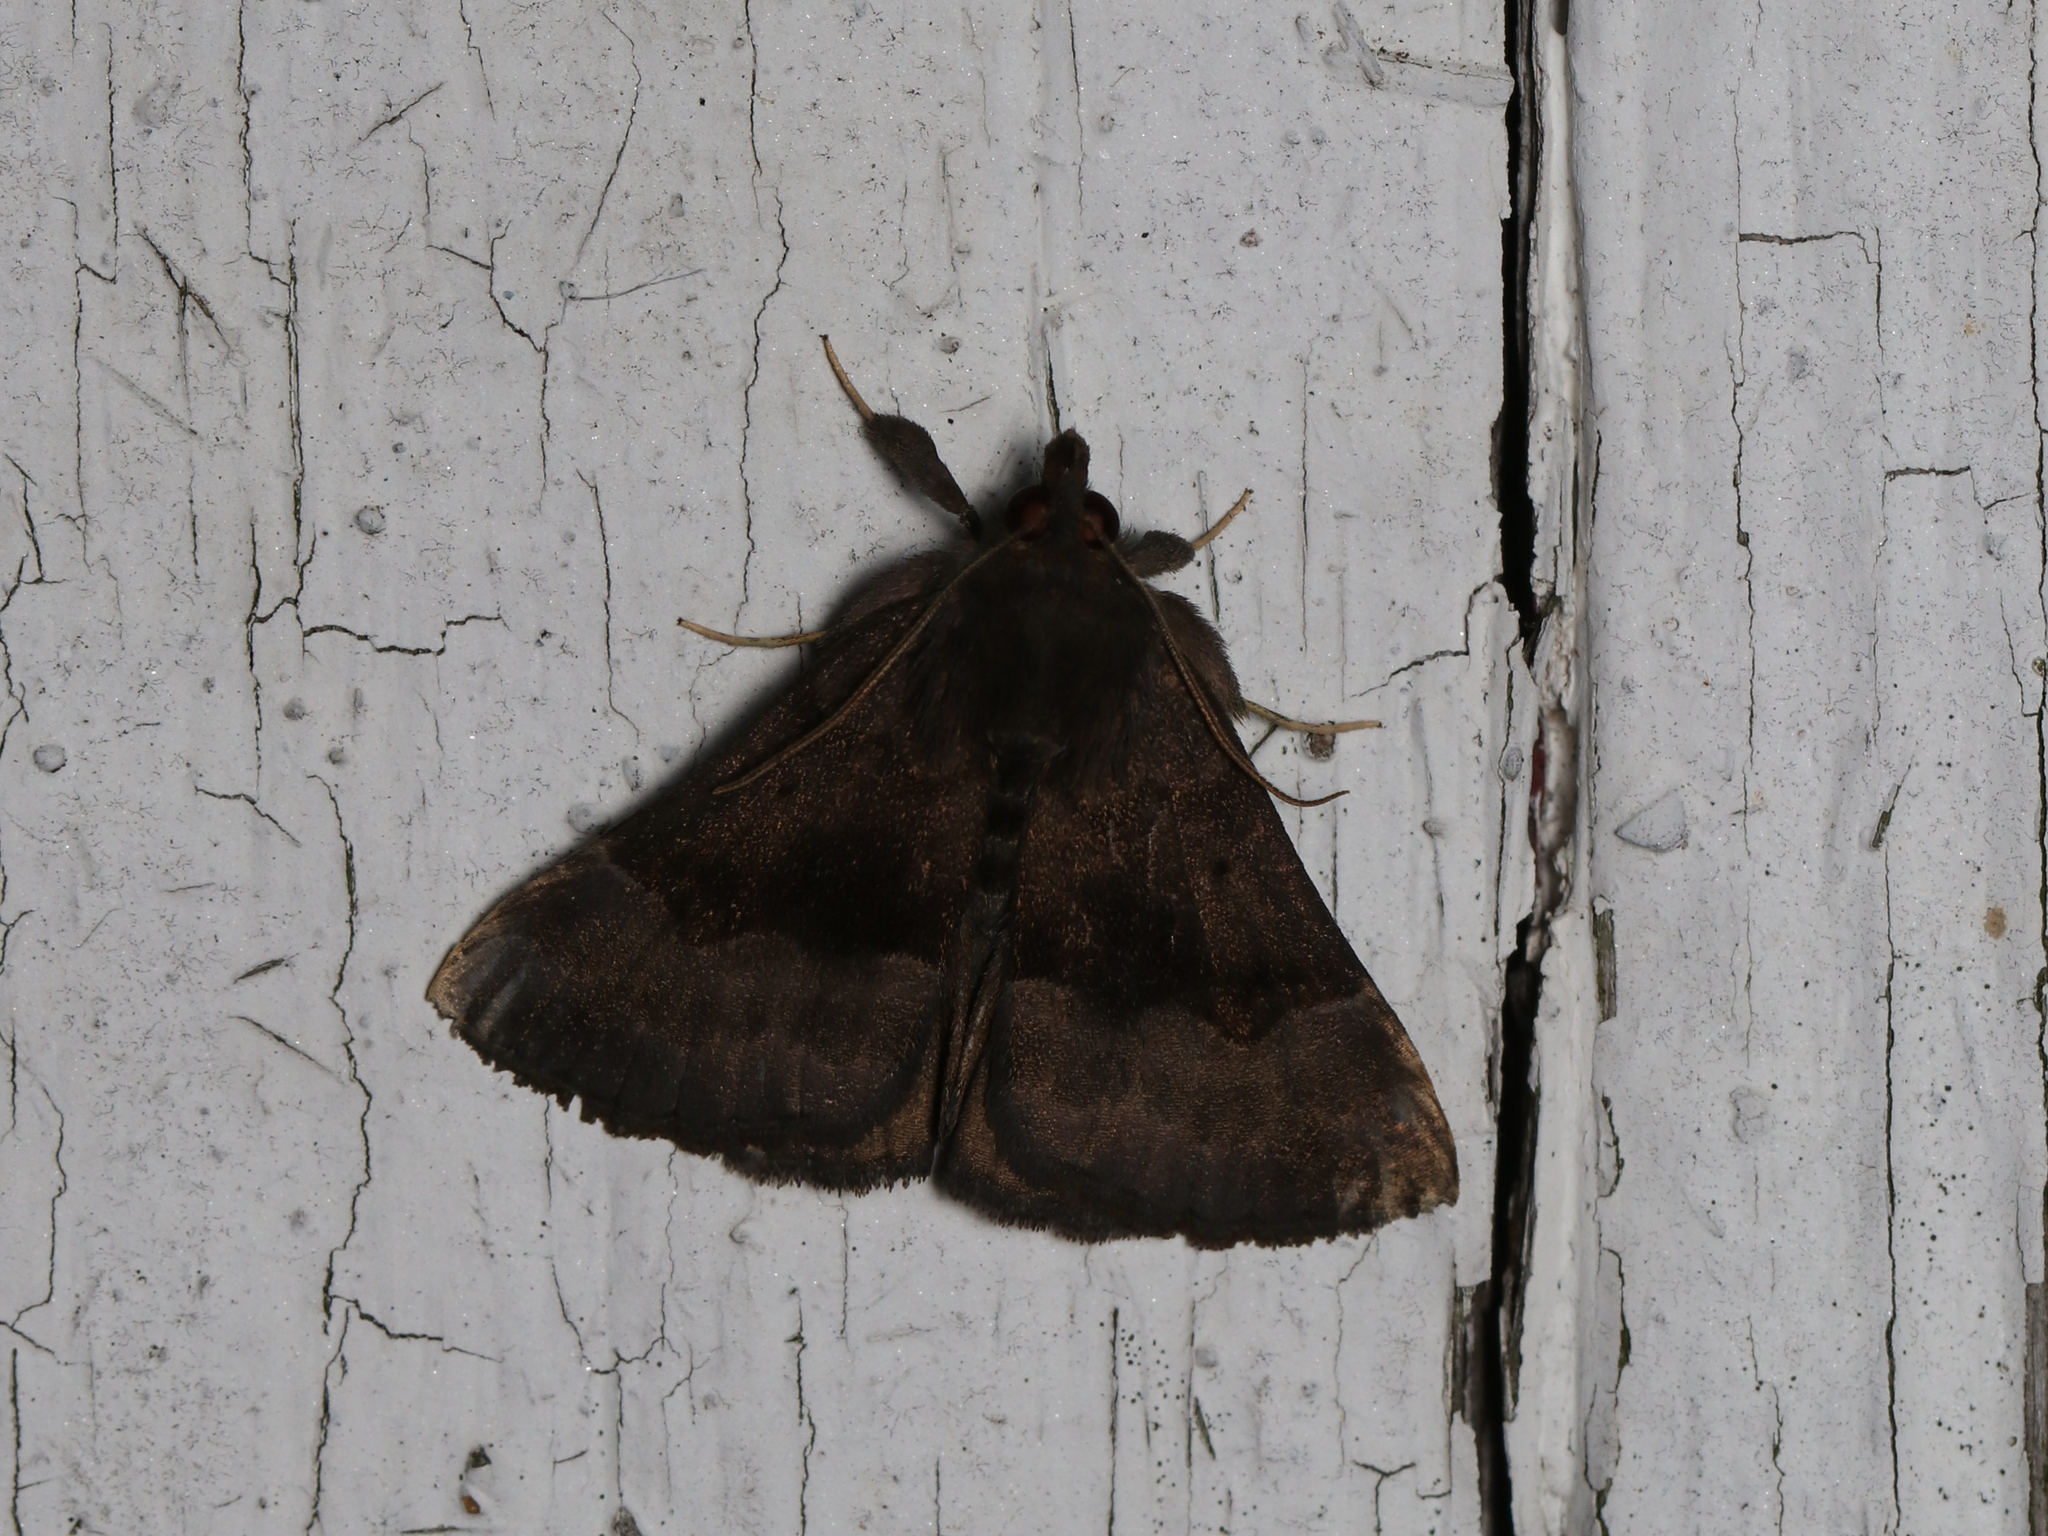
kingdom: Animalia
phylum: Arthropoda
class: Insecta
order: Lepidoptera
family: Erebidae
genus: Hypena
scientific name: Hypena madefactalis
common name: Gray-edged snout
